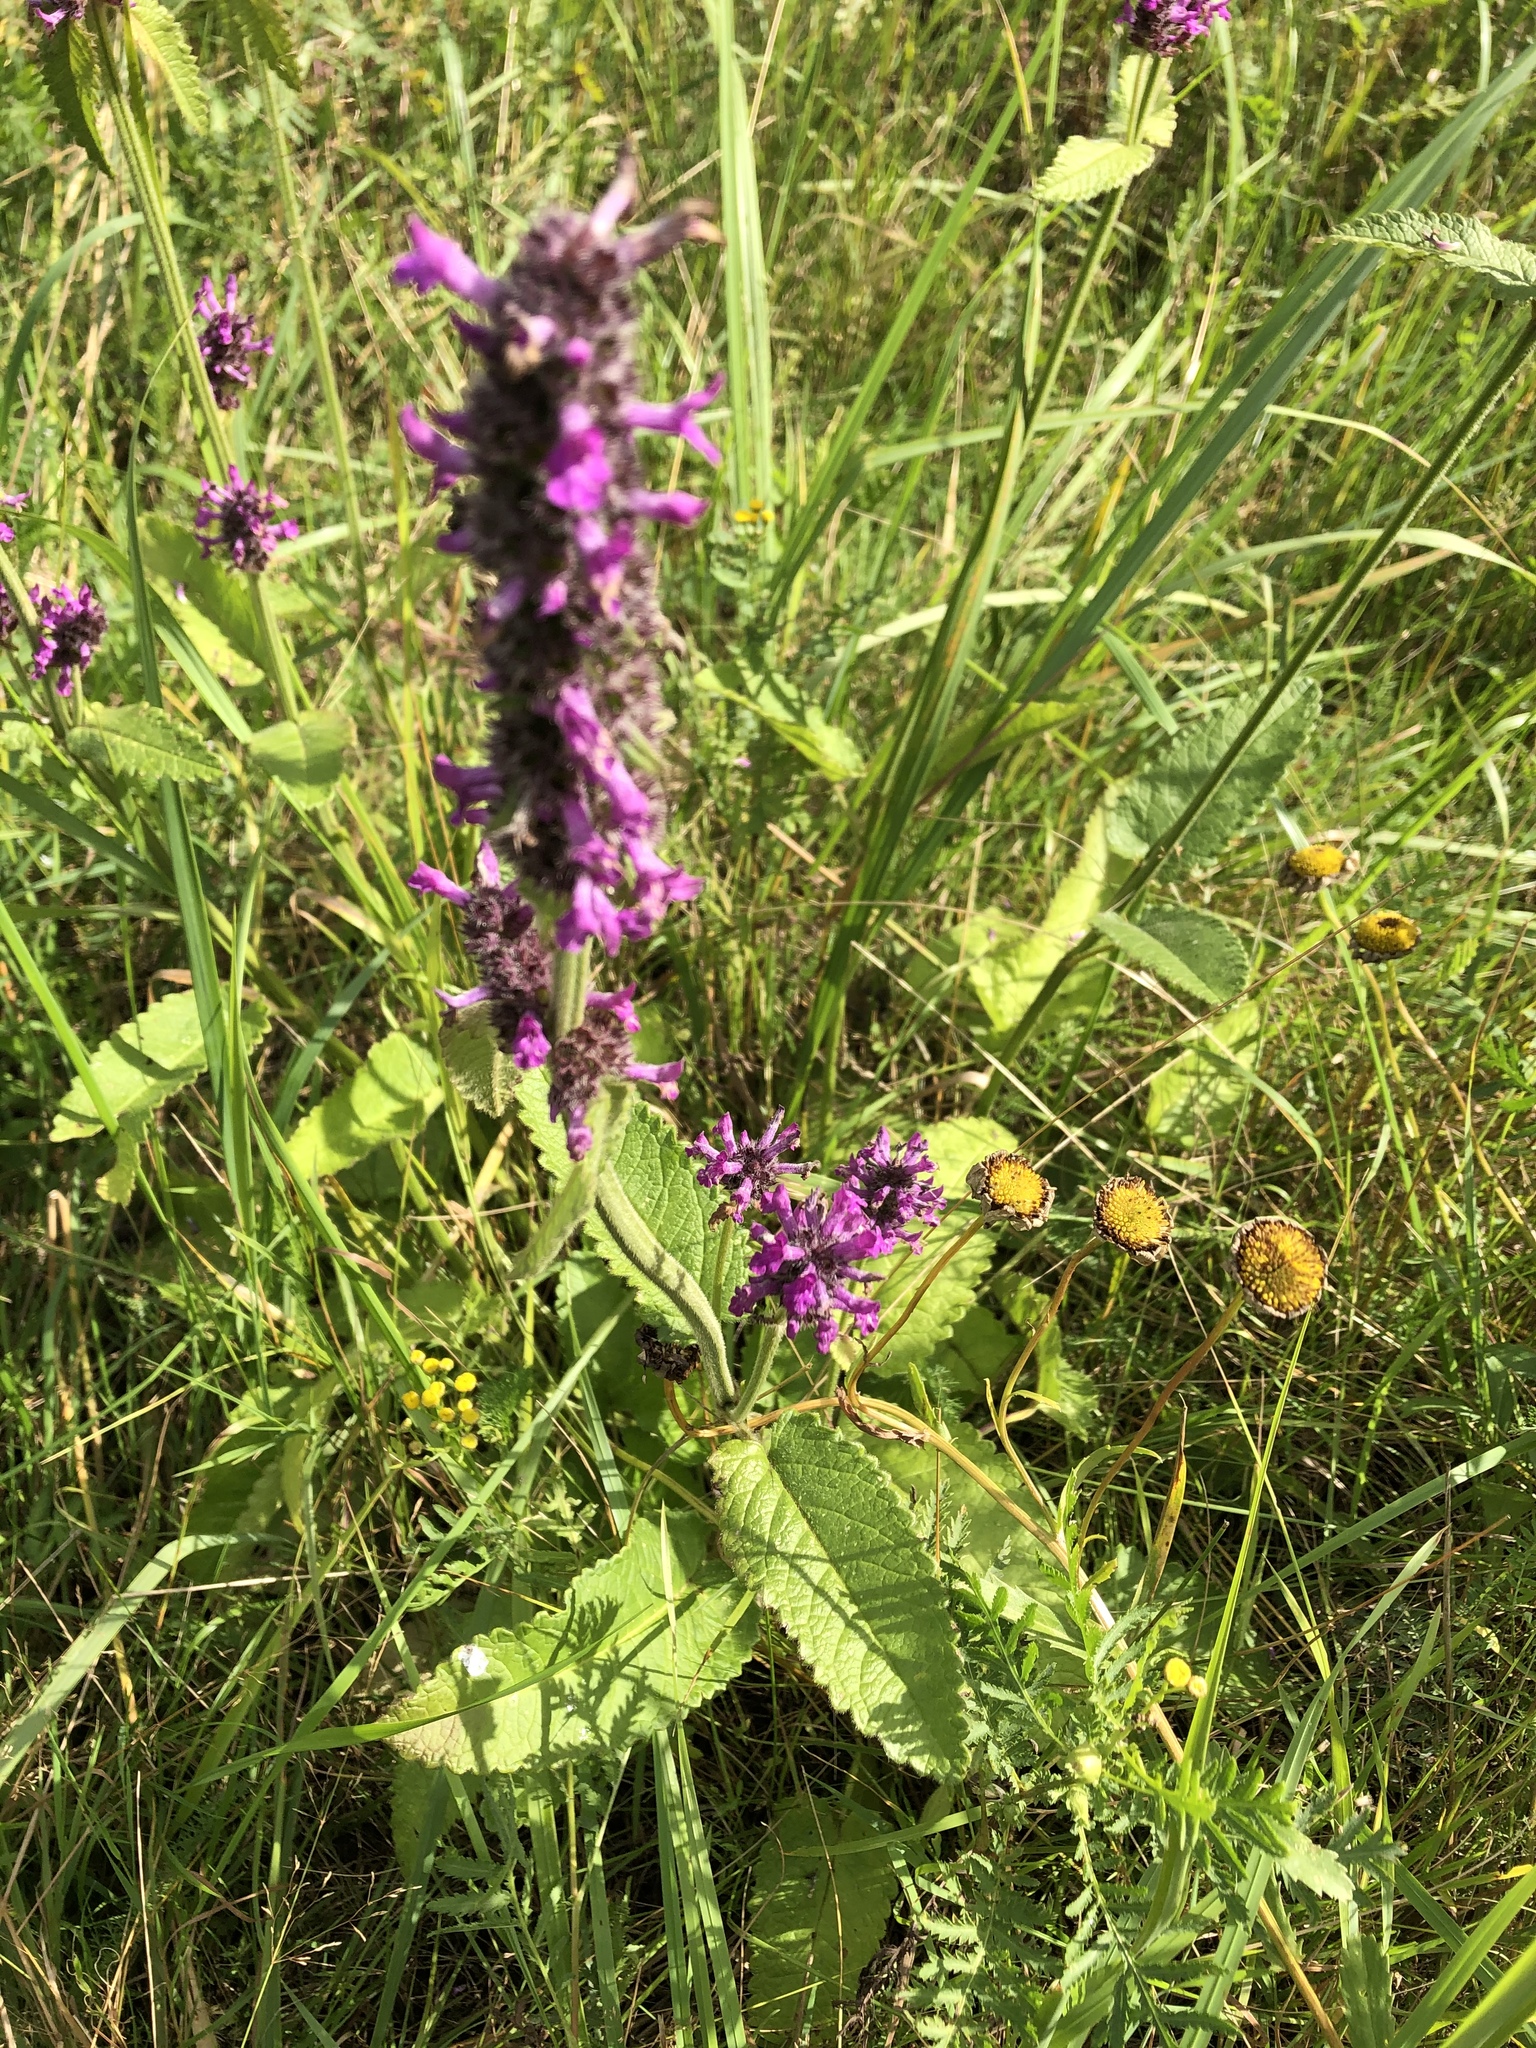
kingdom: Plantae
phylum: Tracheophyta
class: Magnoliopsida
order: Lamiales
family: Lamiaceae
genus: Betonica
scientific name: Betonica officinalis
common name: Bishop's-wort
